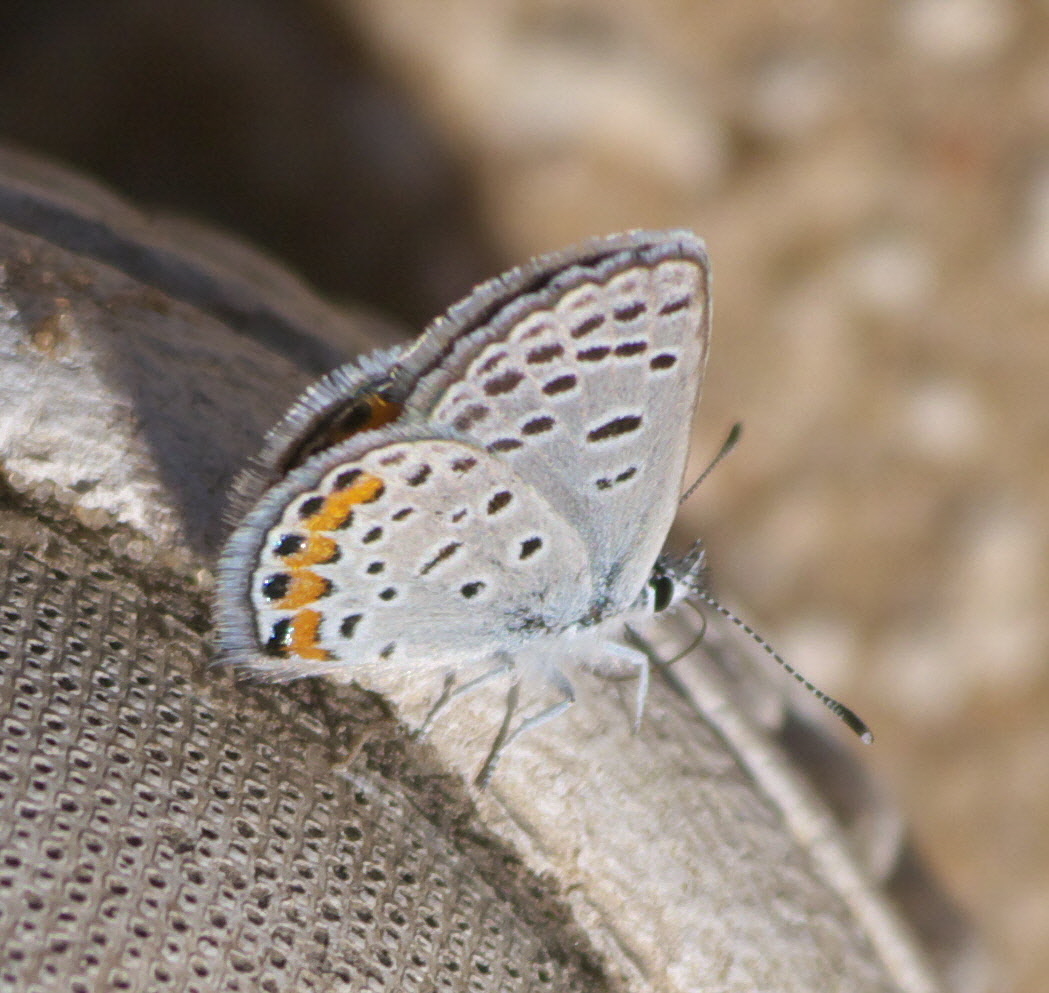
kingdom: Animalia
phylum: Arthropoda
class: Insecta
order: Lepidoptera
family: Lycaenidae
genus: Icaricia
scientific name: Icaricia lupini
